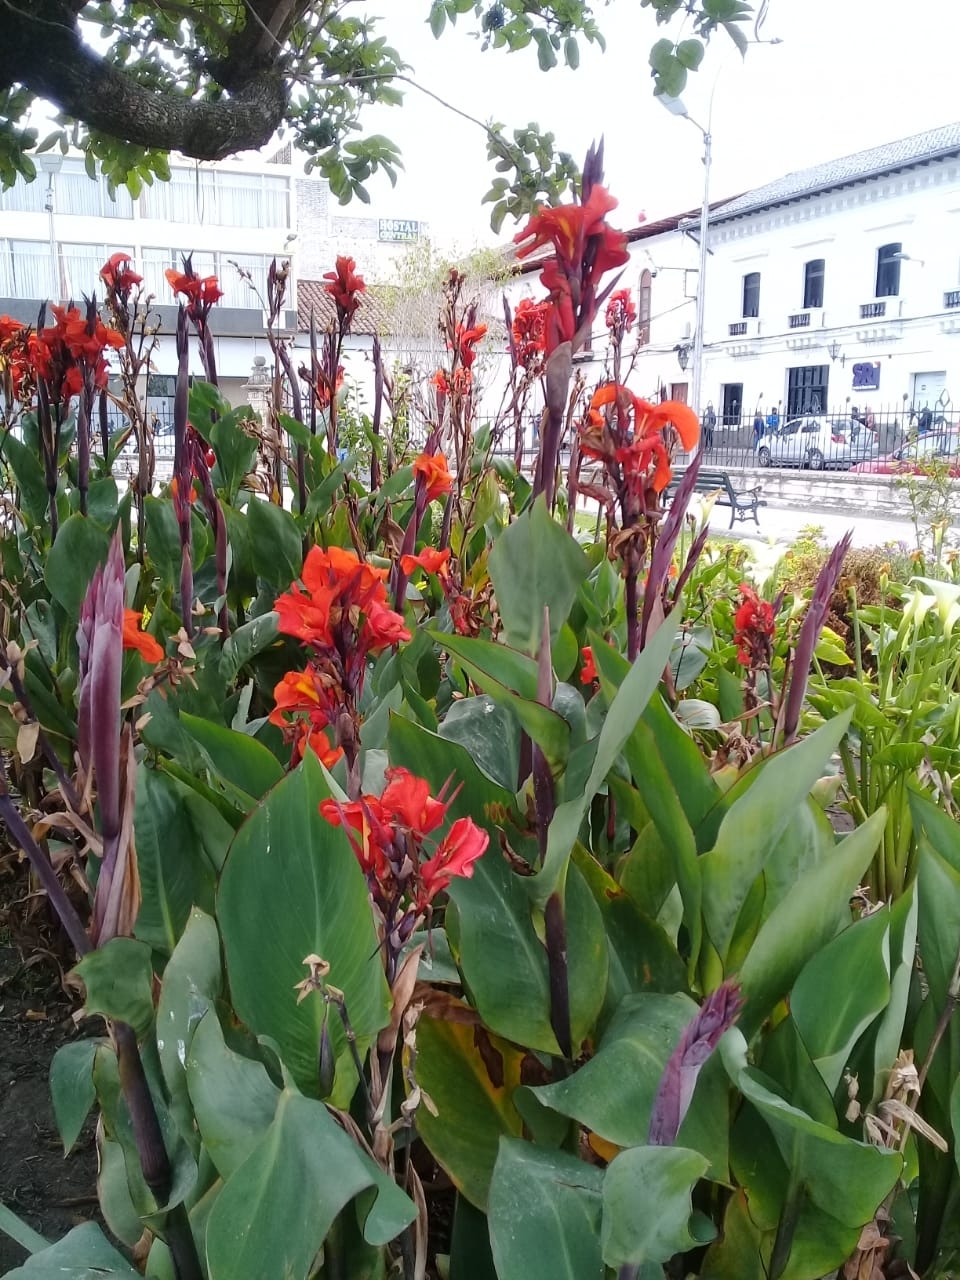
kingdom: Plantae
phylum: Tracheophyta
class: Liliopsida
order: Zingiberales
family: Cannaceae
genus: Canna
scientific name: Canna hybrida
